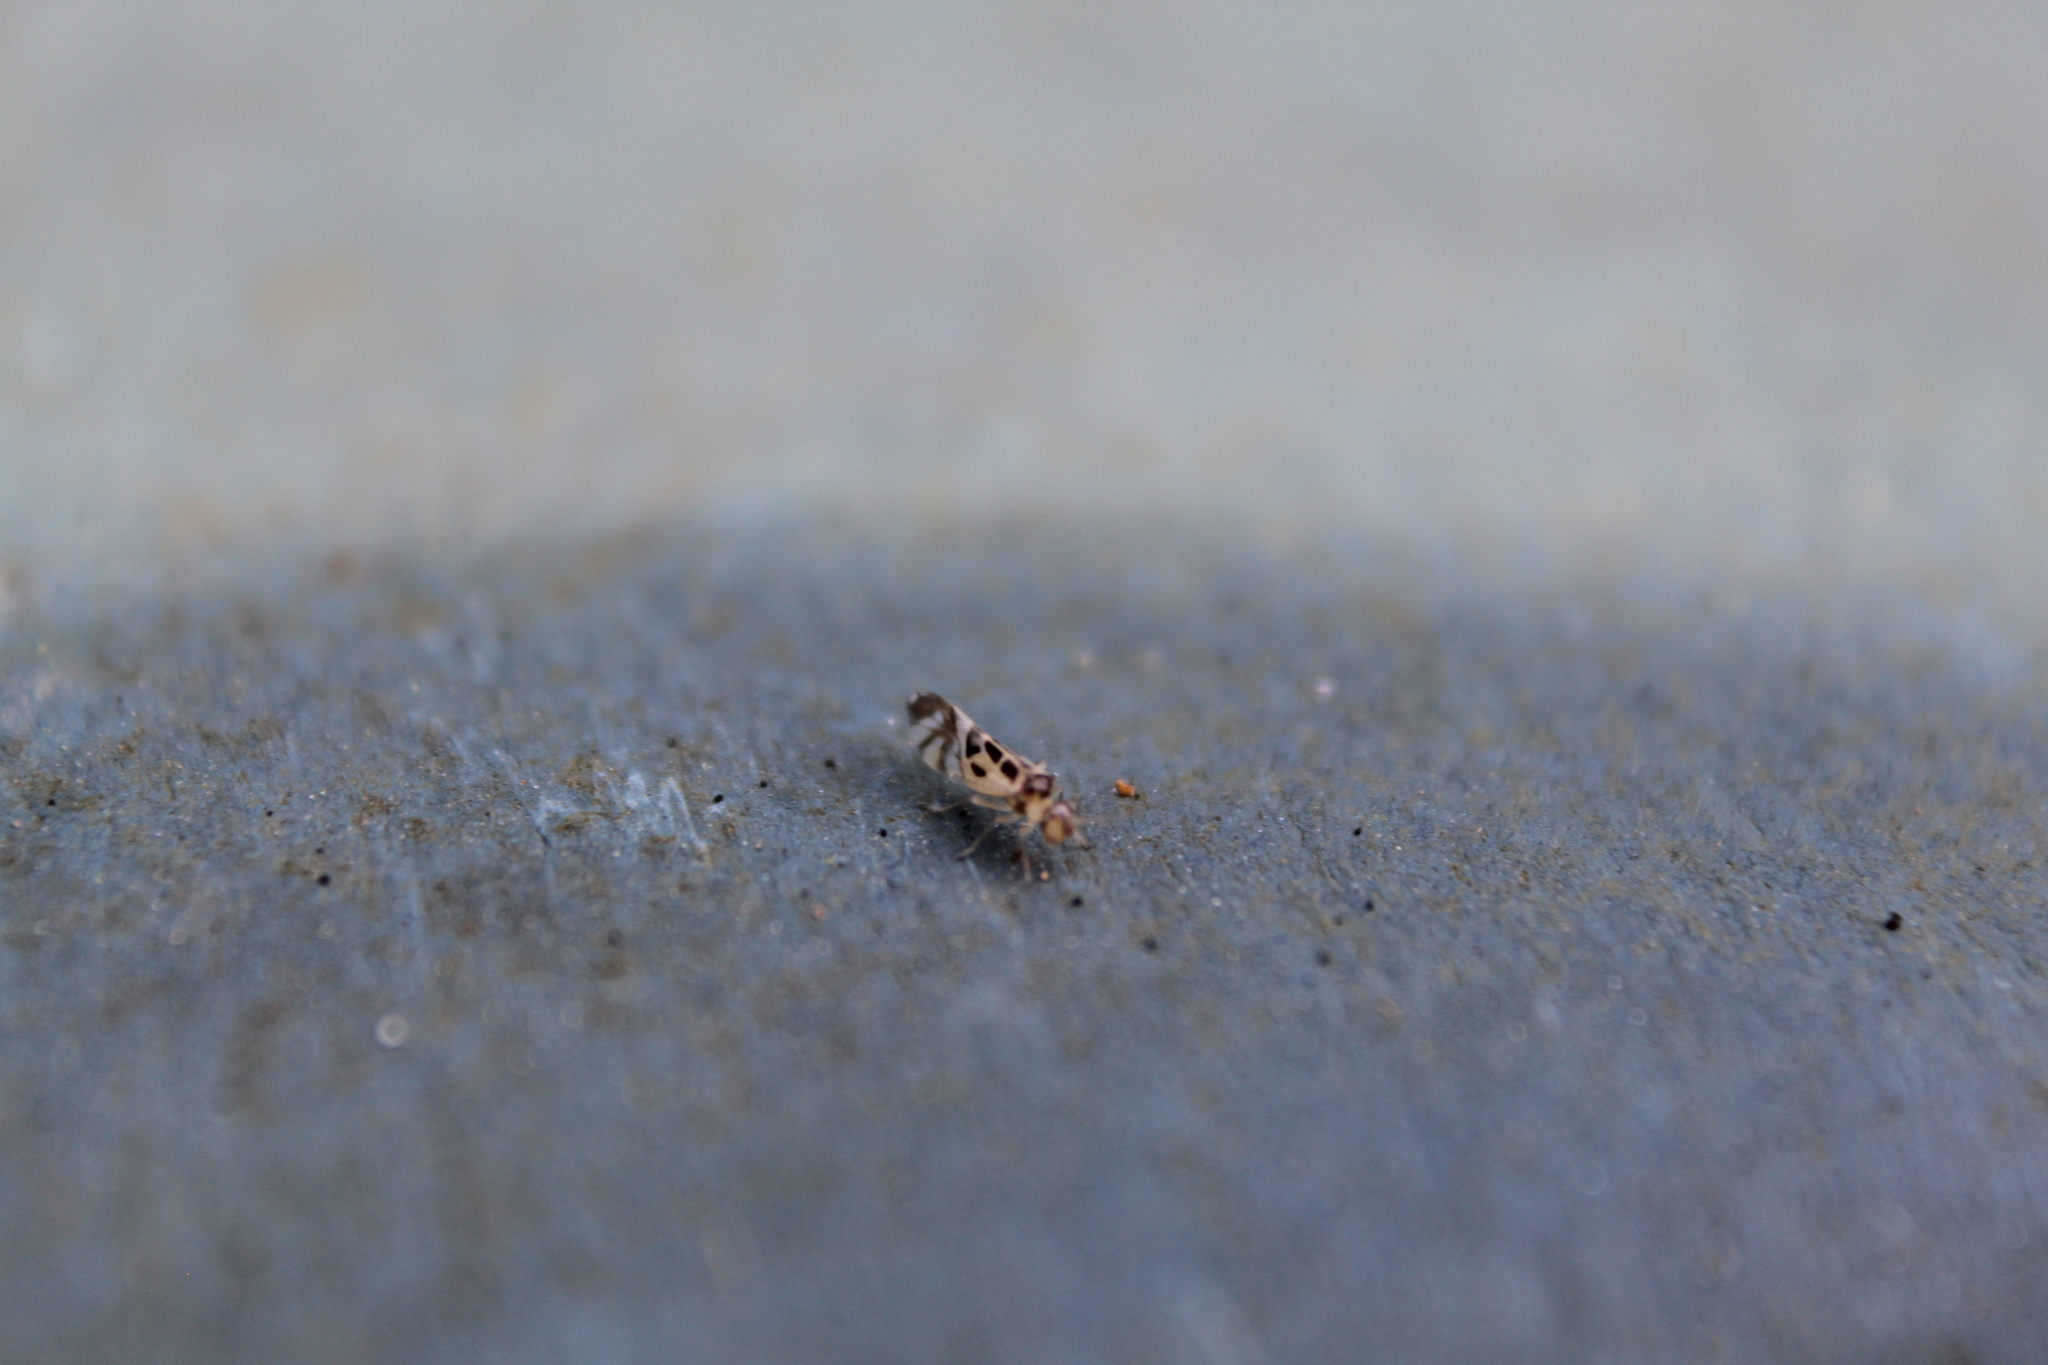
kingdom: Animalia
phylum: Arthropoda
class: Insecta
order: Psocodea
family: Stenopsocidae
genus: Graphopsocus
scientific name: Graphopsocus cruciatus
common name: Lizard bark louse
